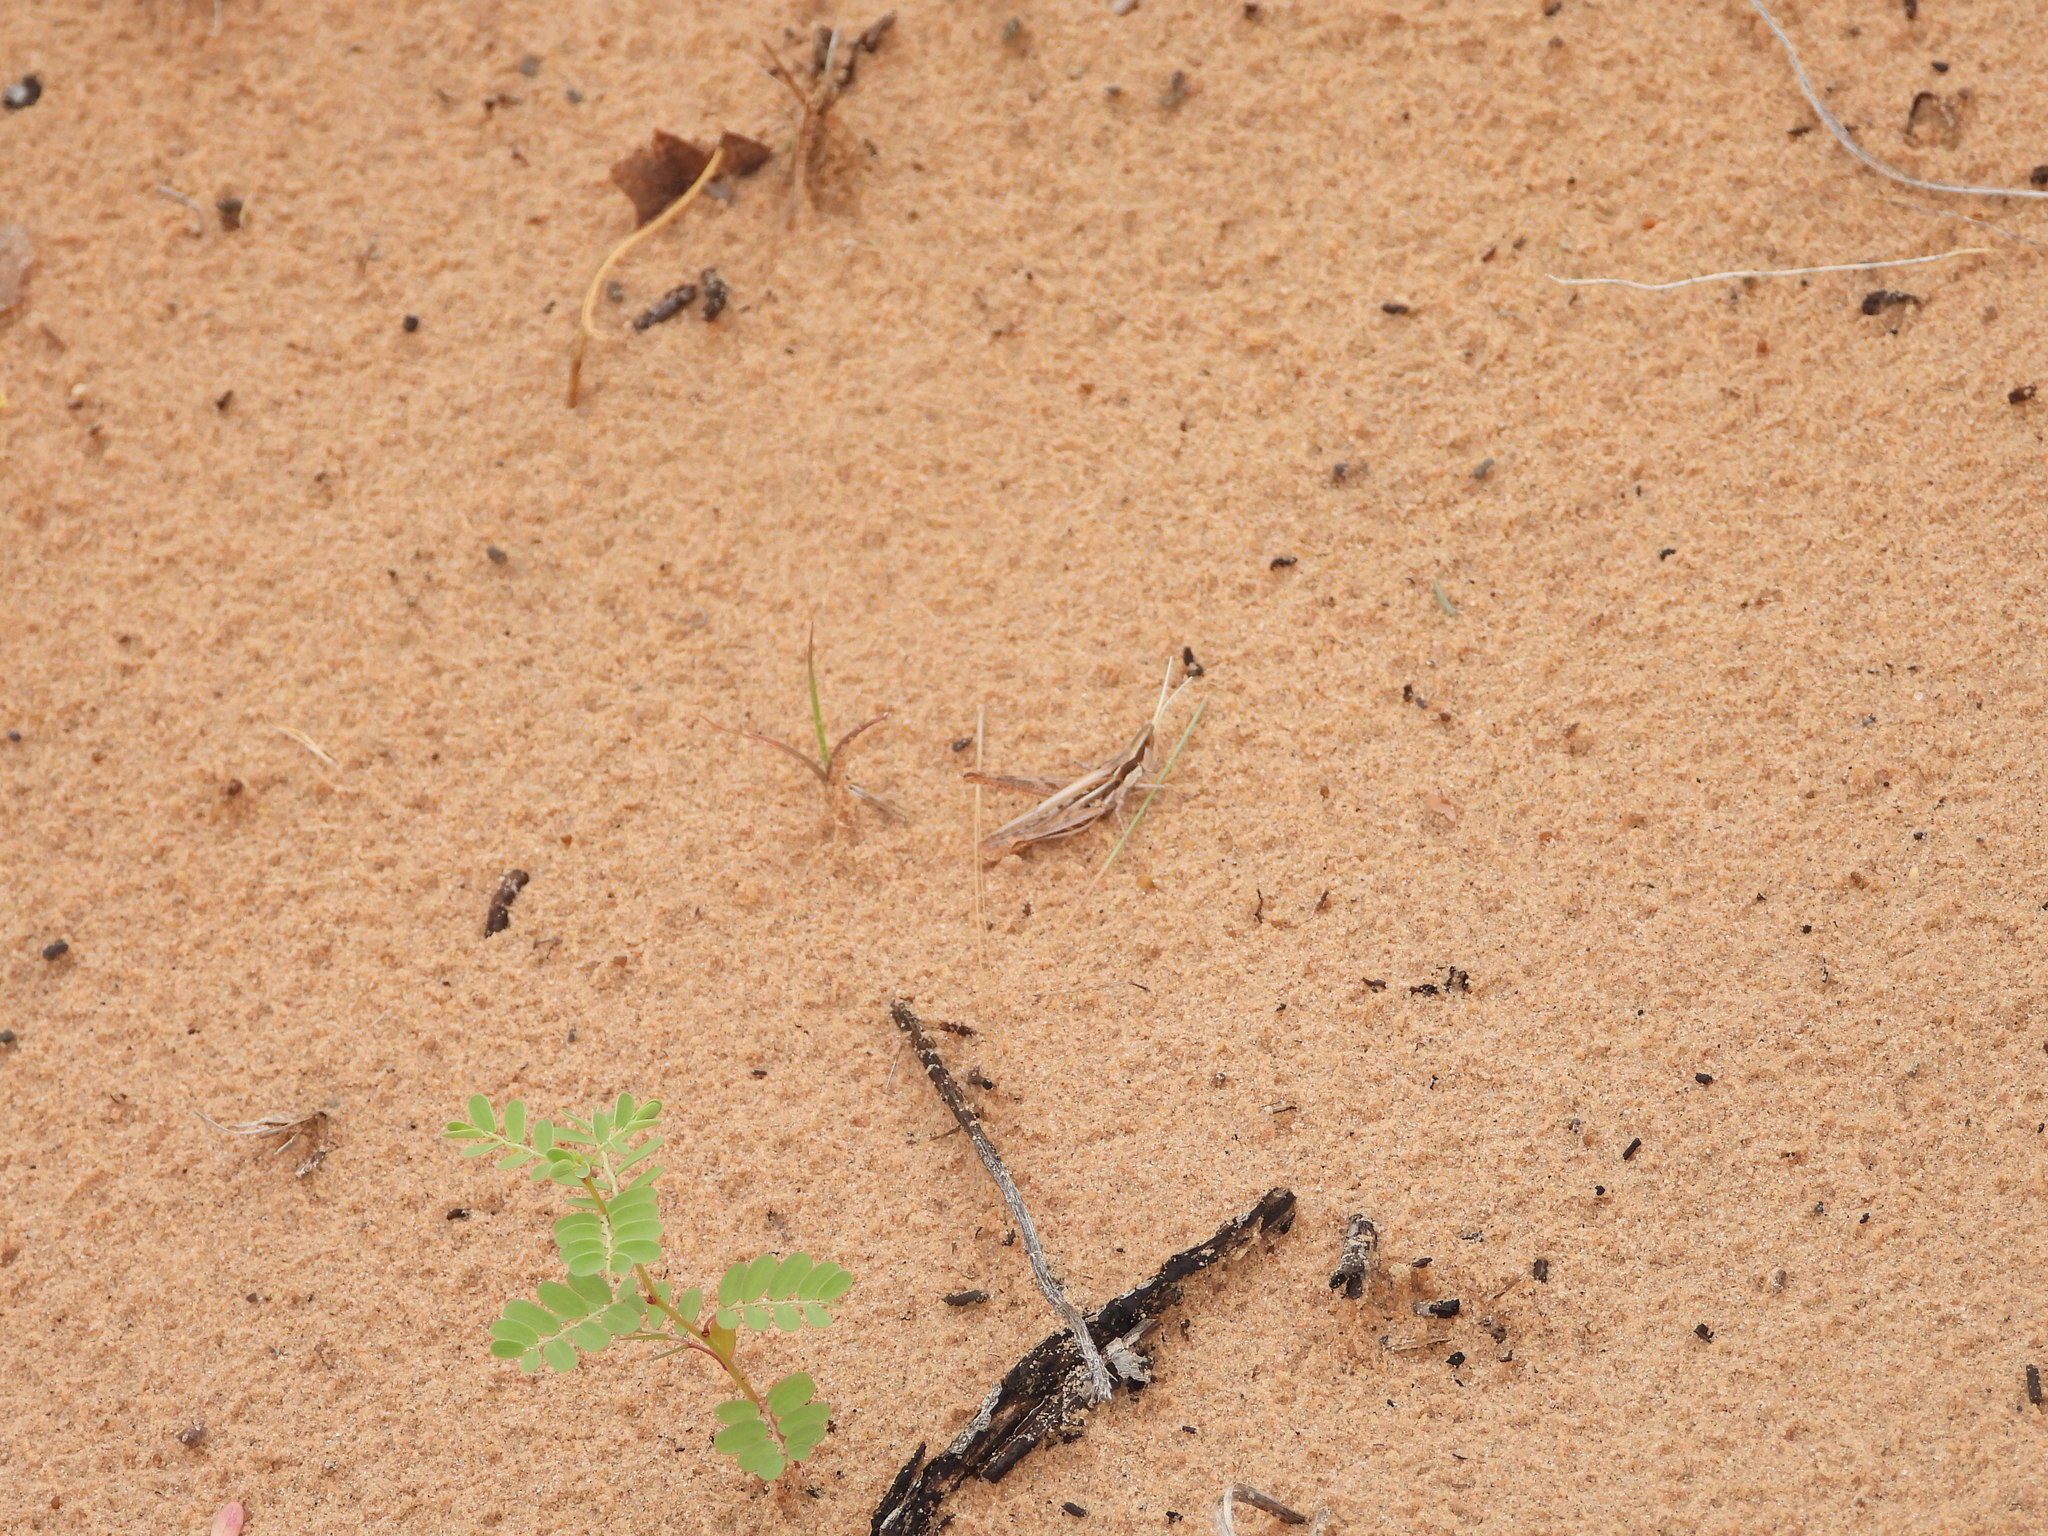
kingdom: Animalia
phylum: Arthropoda
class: Insecta
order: Orthoptera
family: Acrididae
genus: Cordillacris
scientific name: Cordillacris occipitalis
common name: Spotted-winged grasshopper
